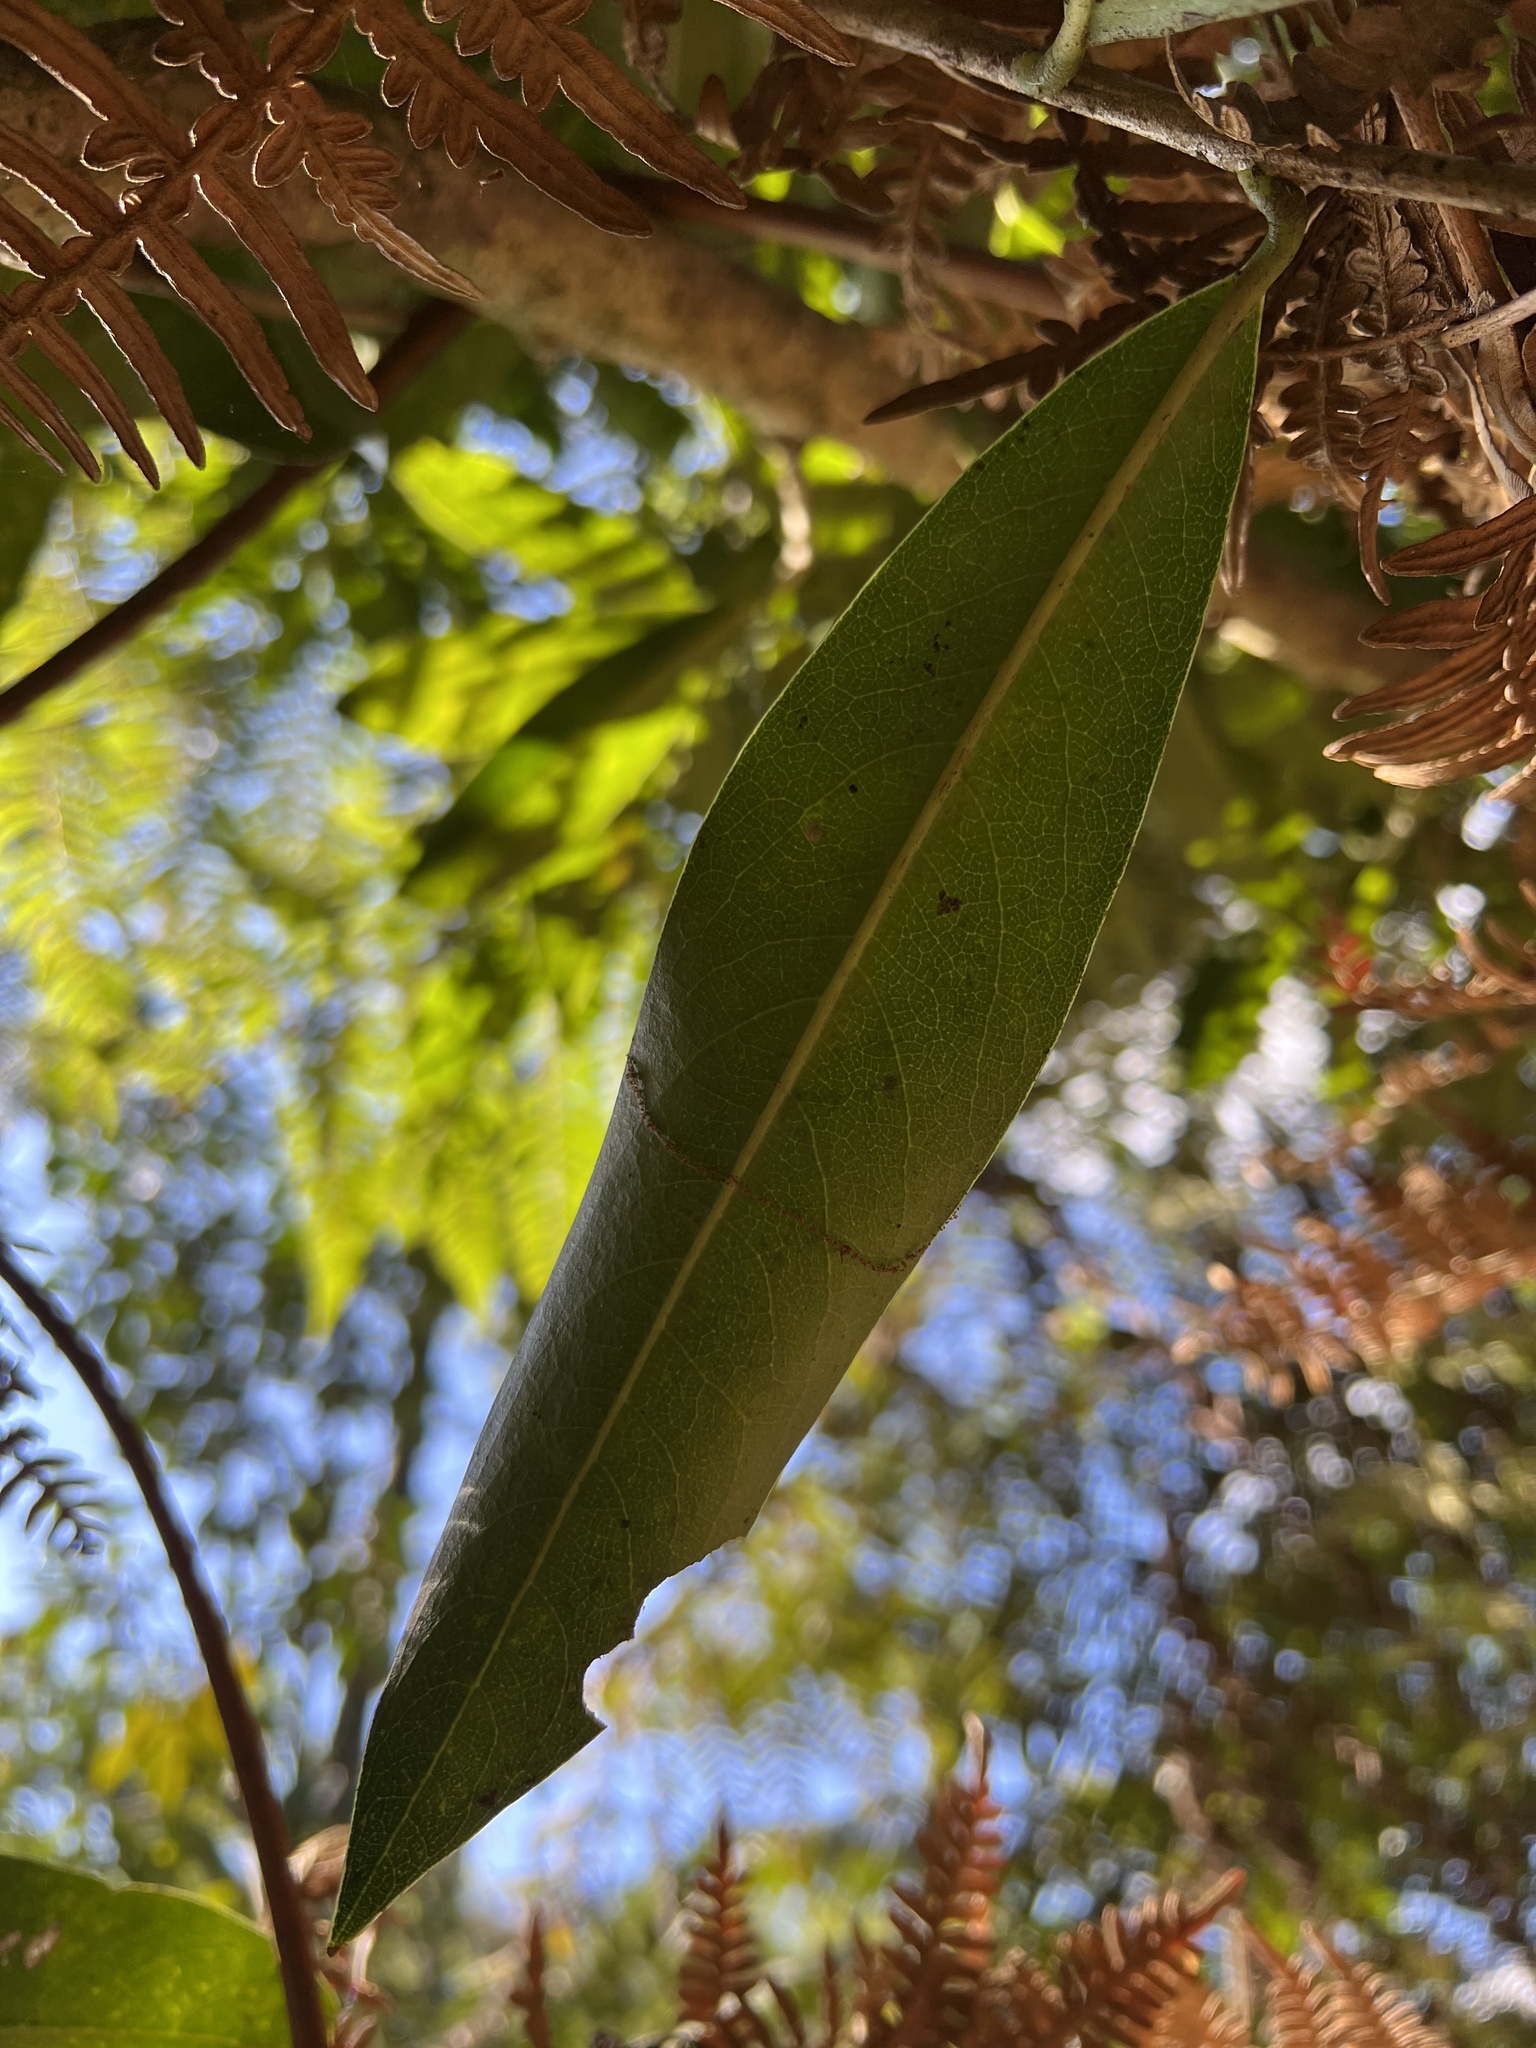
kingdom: Plantae
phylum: Tracheophyta
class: Magnoliopsida
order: Malvales
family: Thymelaeaceae
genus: Daphnopsis
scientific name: Daphnopsis caracasana
